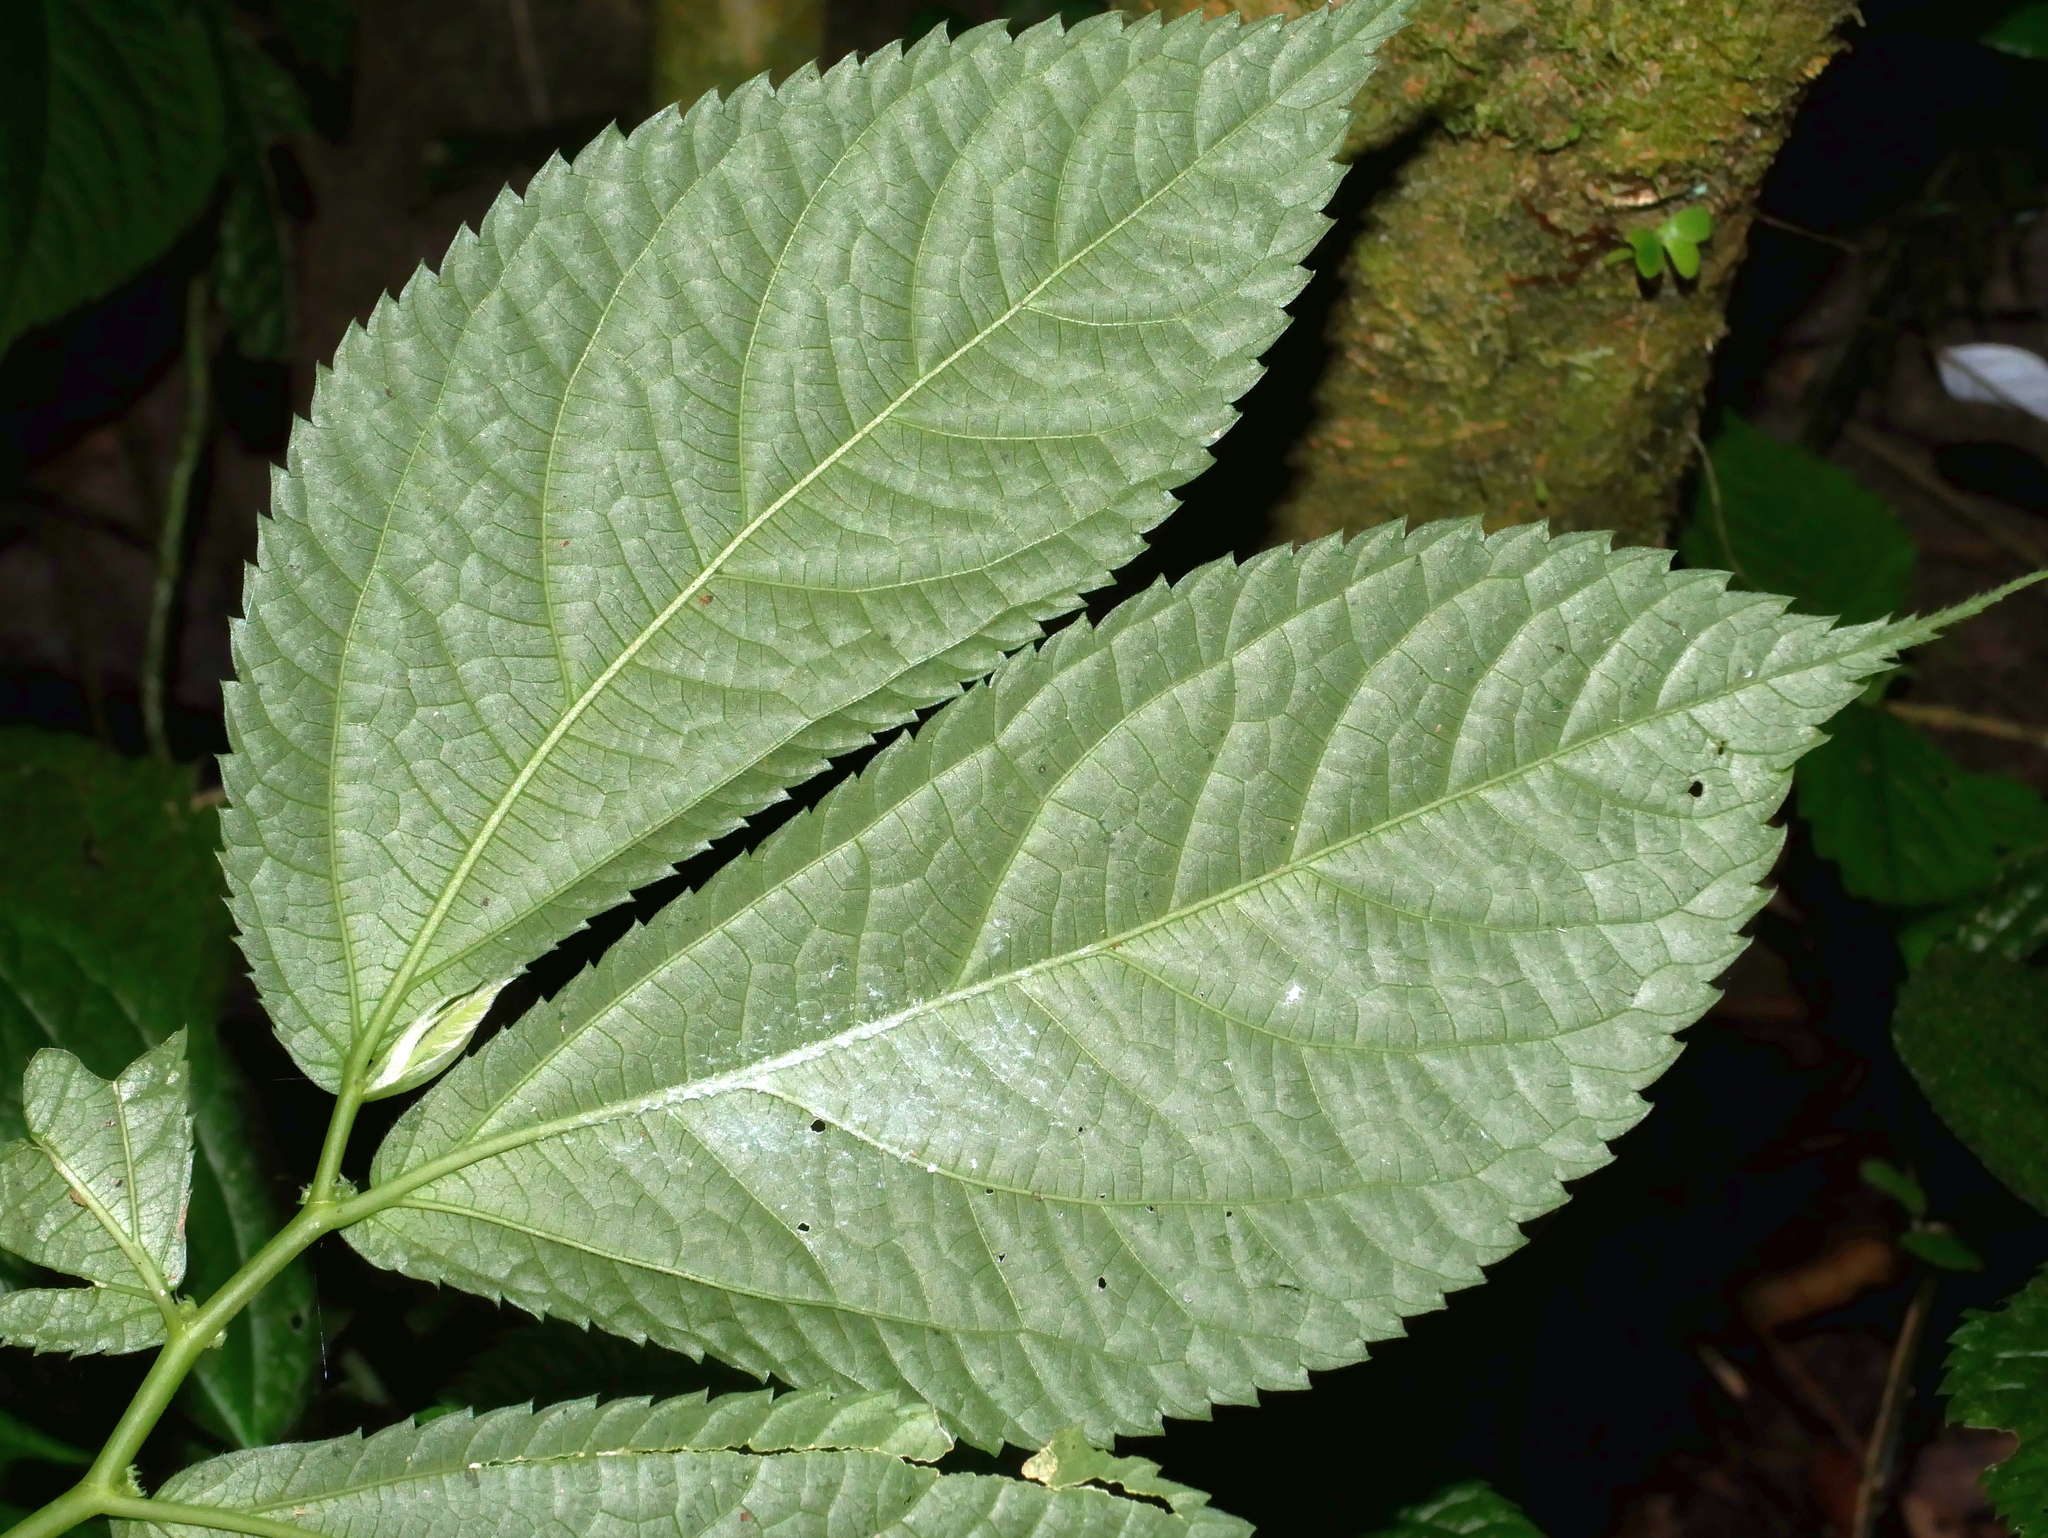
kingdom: Plantae
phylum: Tracheophyta
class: Magnoliopsida
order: Rosales
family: Urticaceae
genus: Elatostema
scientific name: Elatostema rivulare
